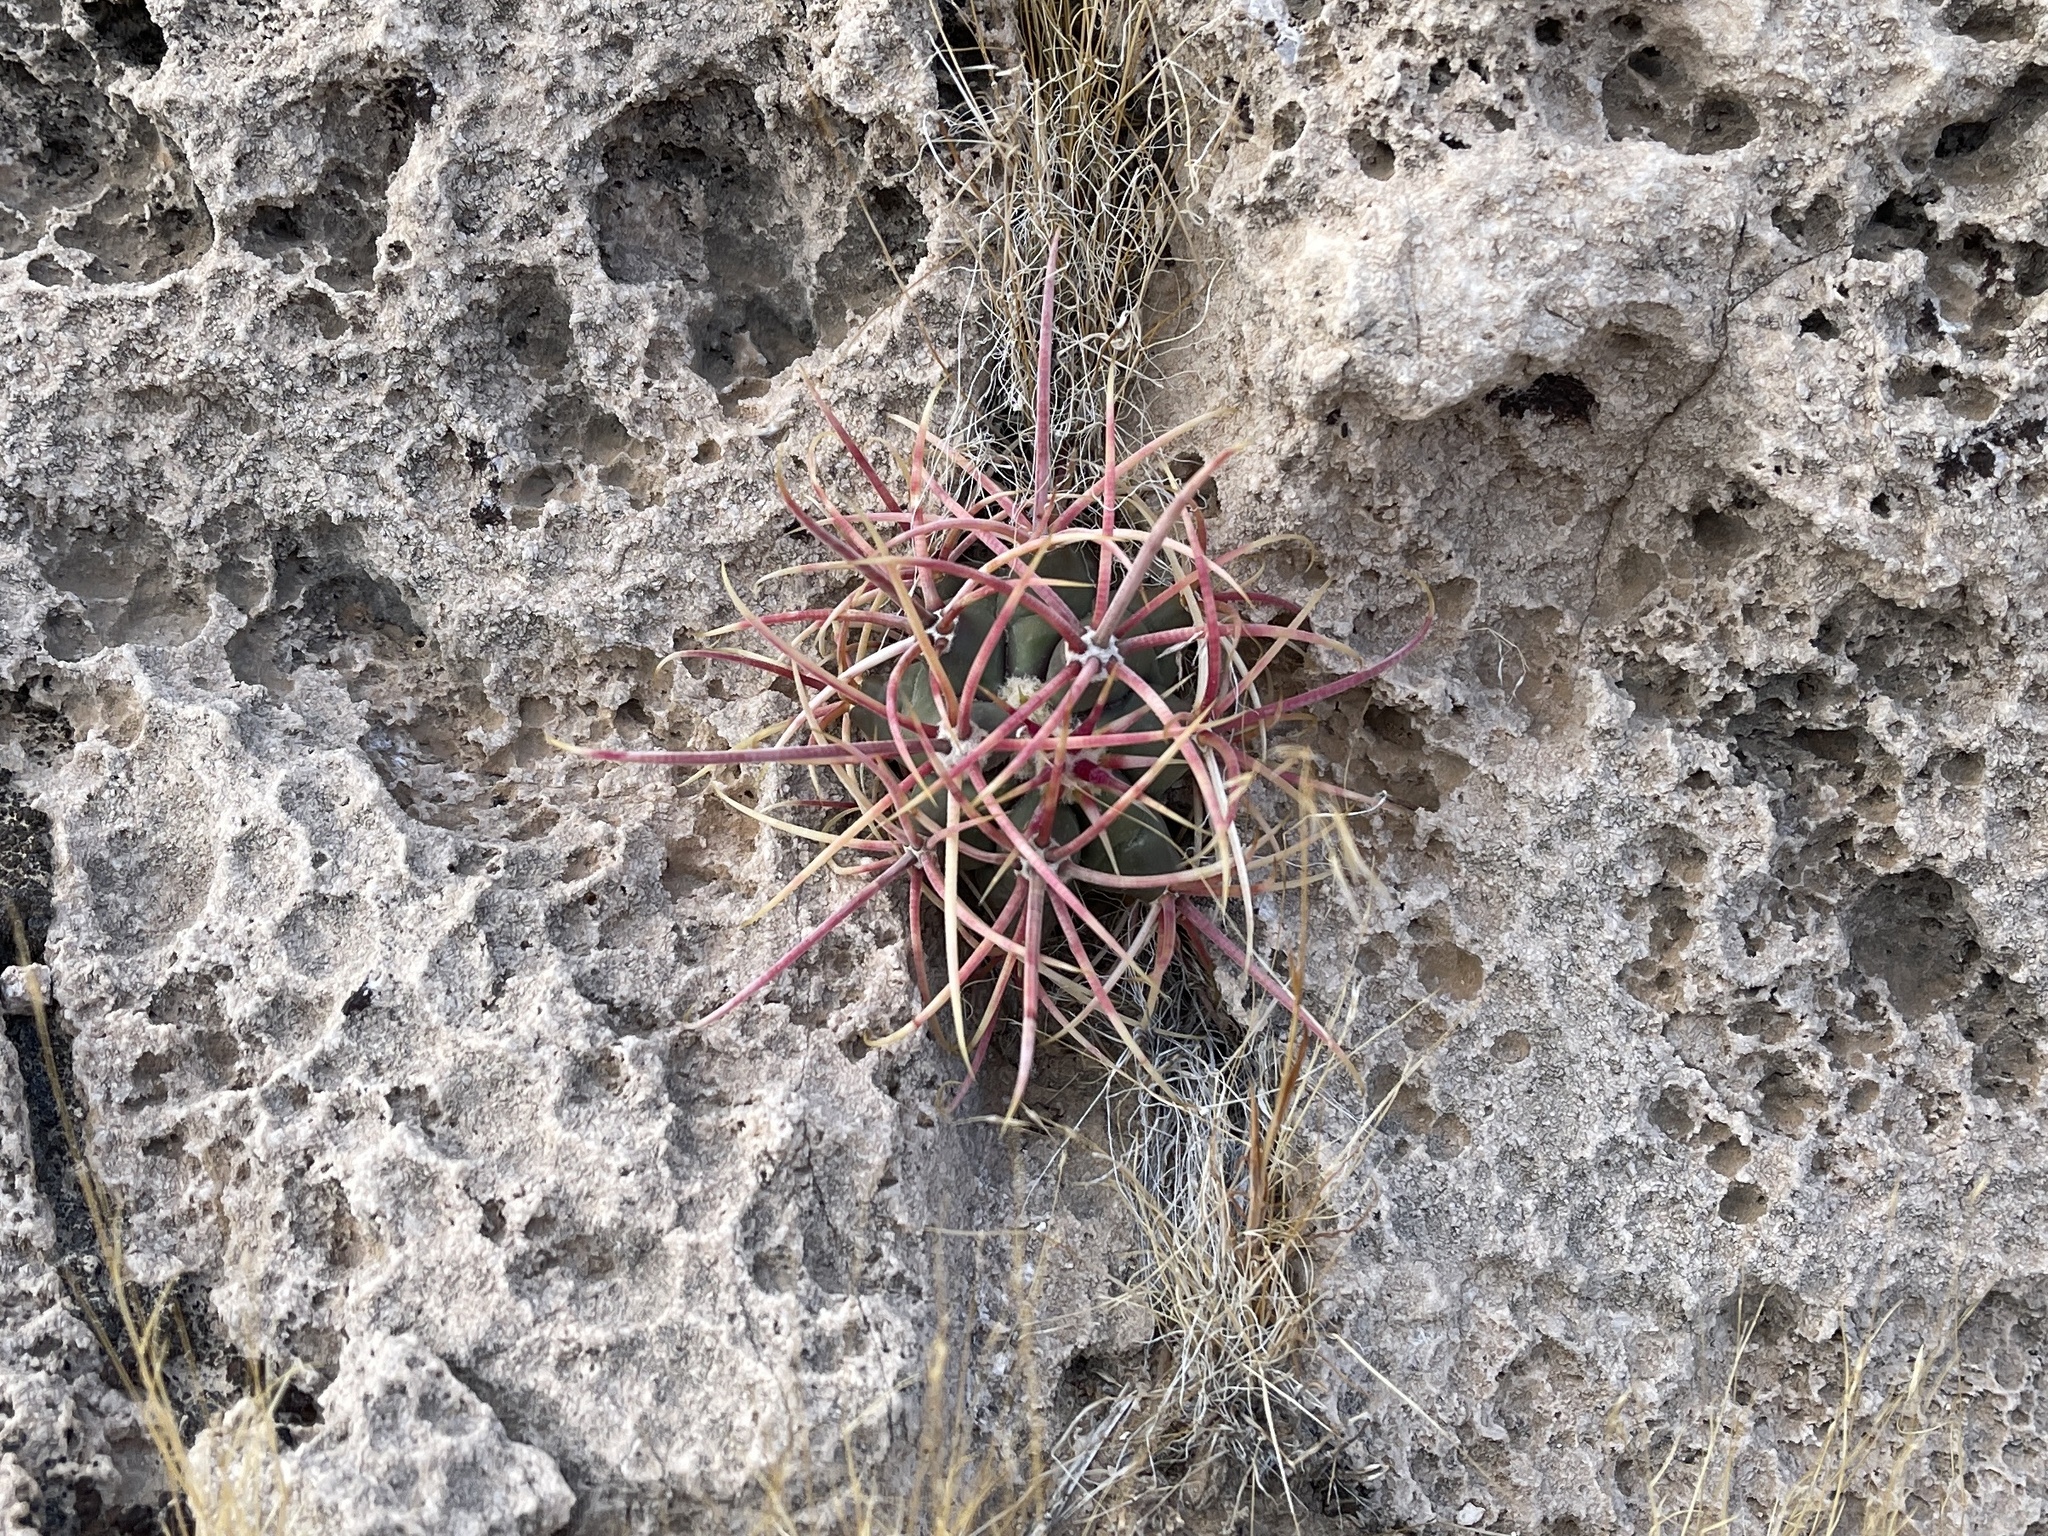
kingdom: Plantae
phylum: Tracheophyta
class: Magnoliopsida
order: Caryophyllales
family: Cactaceae
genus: Ferocactus
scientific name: Ferocactus cylindraceus
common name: California barrel cactus
